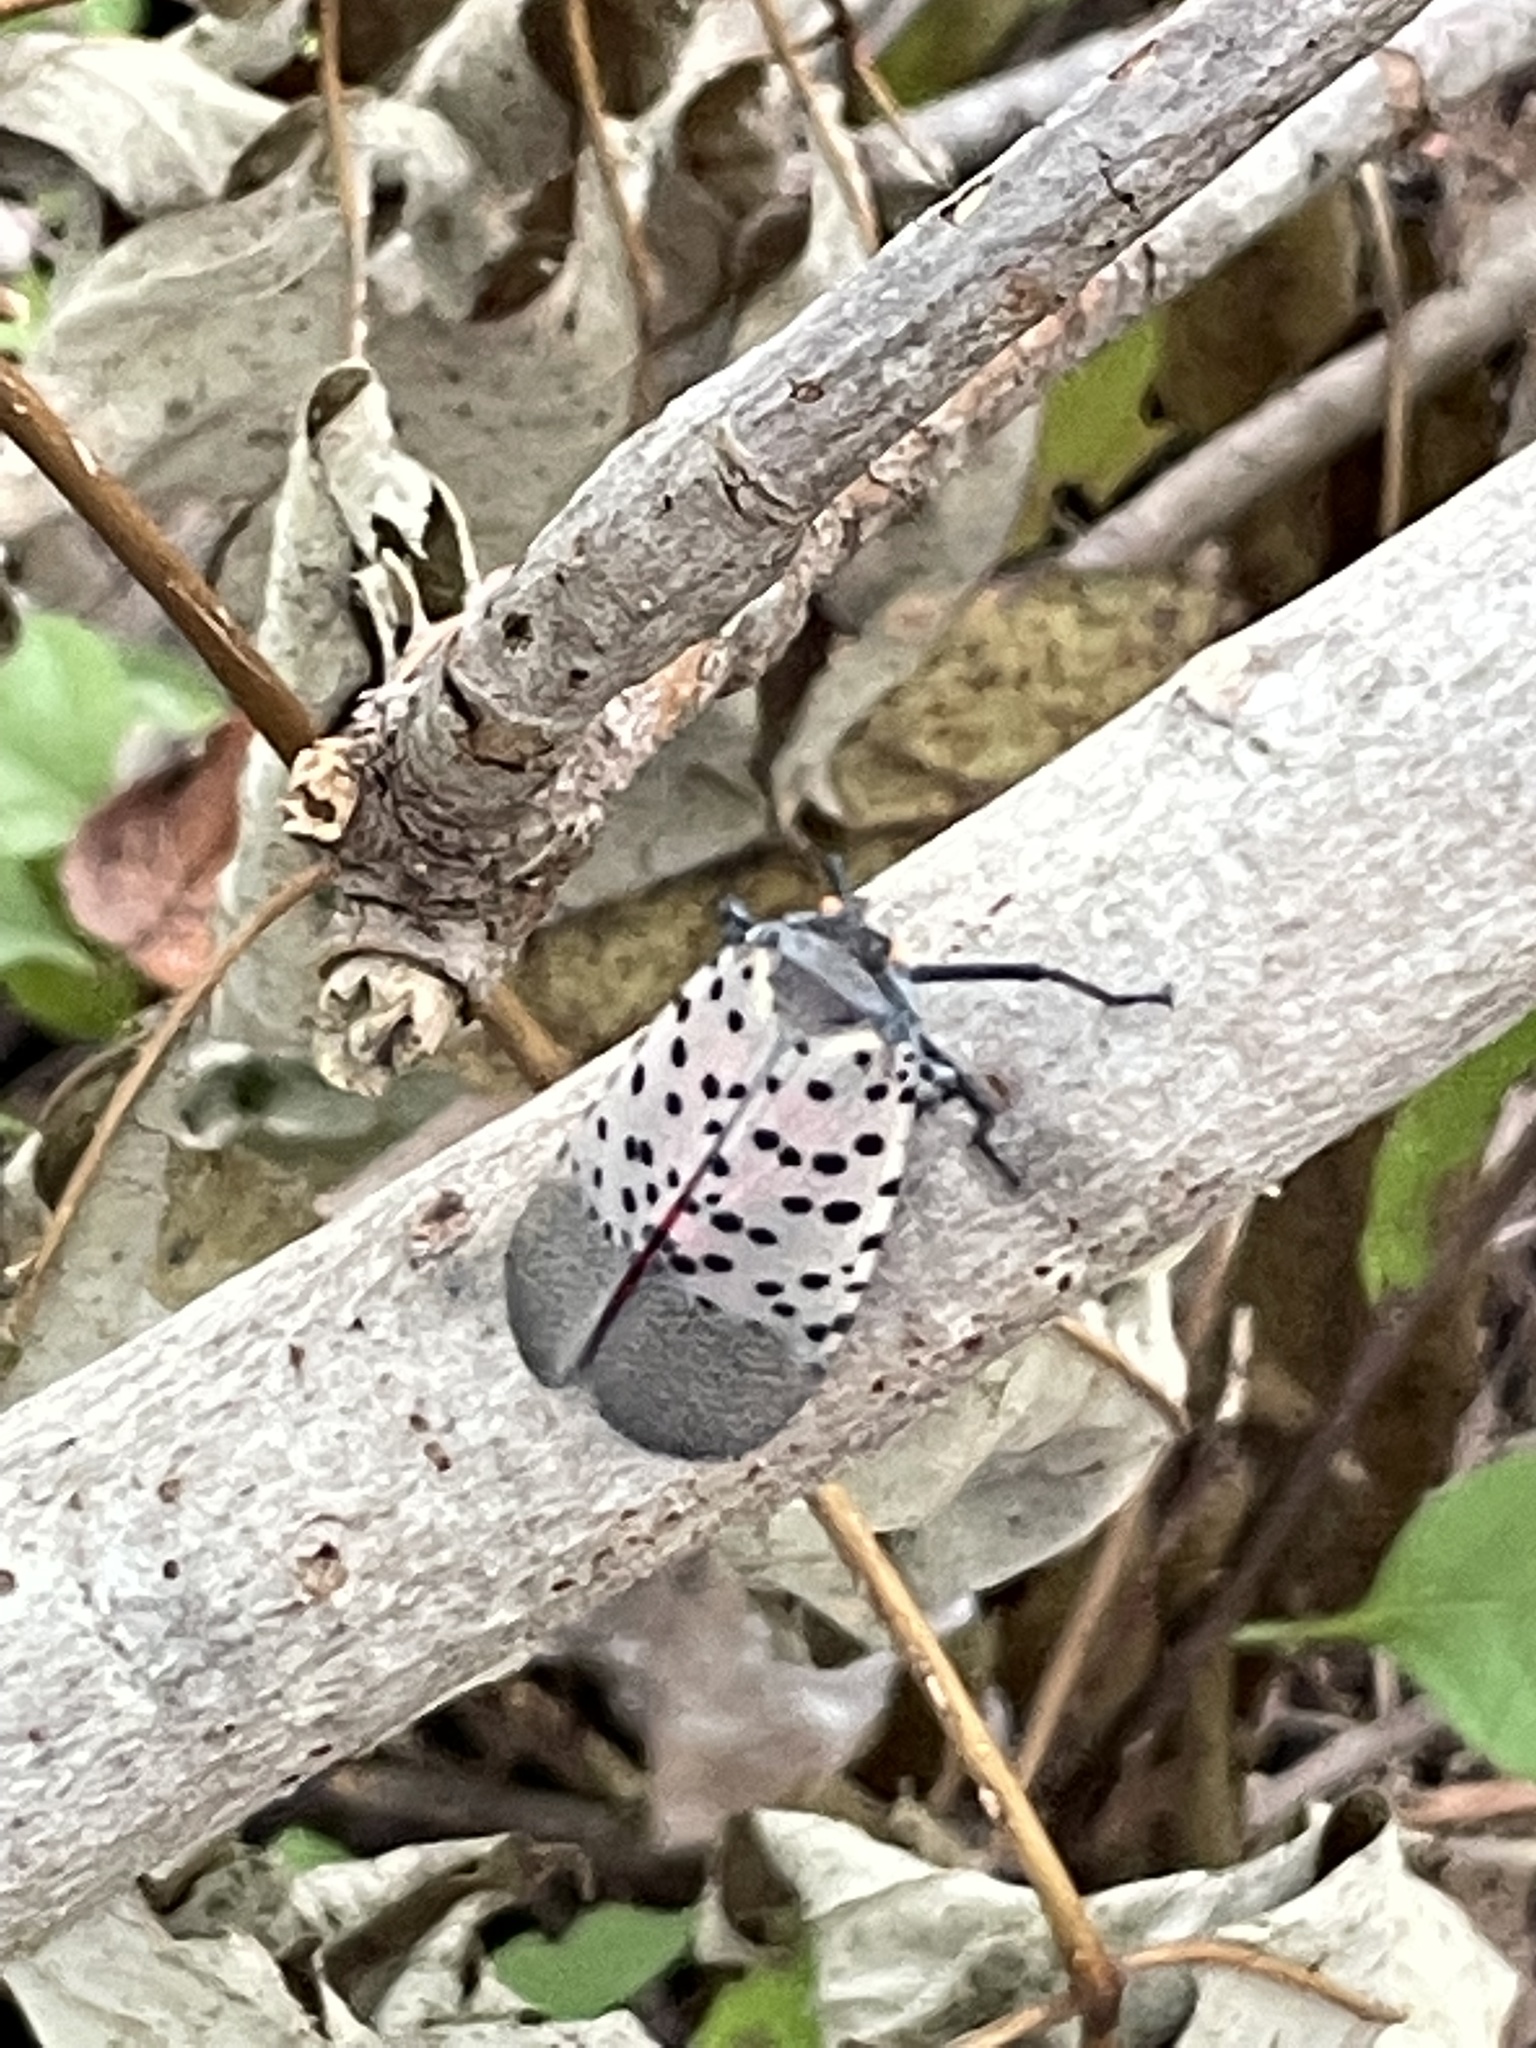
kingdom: Animalia
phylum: Arthropoda
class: Insecta
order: Hemiptera
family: Fulgoridae
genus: Lycorma
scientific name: Lycorma delicatula
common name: Spotted lanternfly
